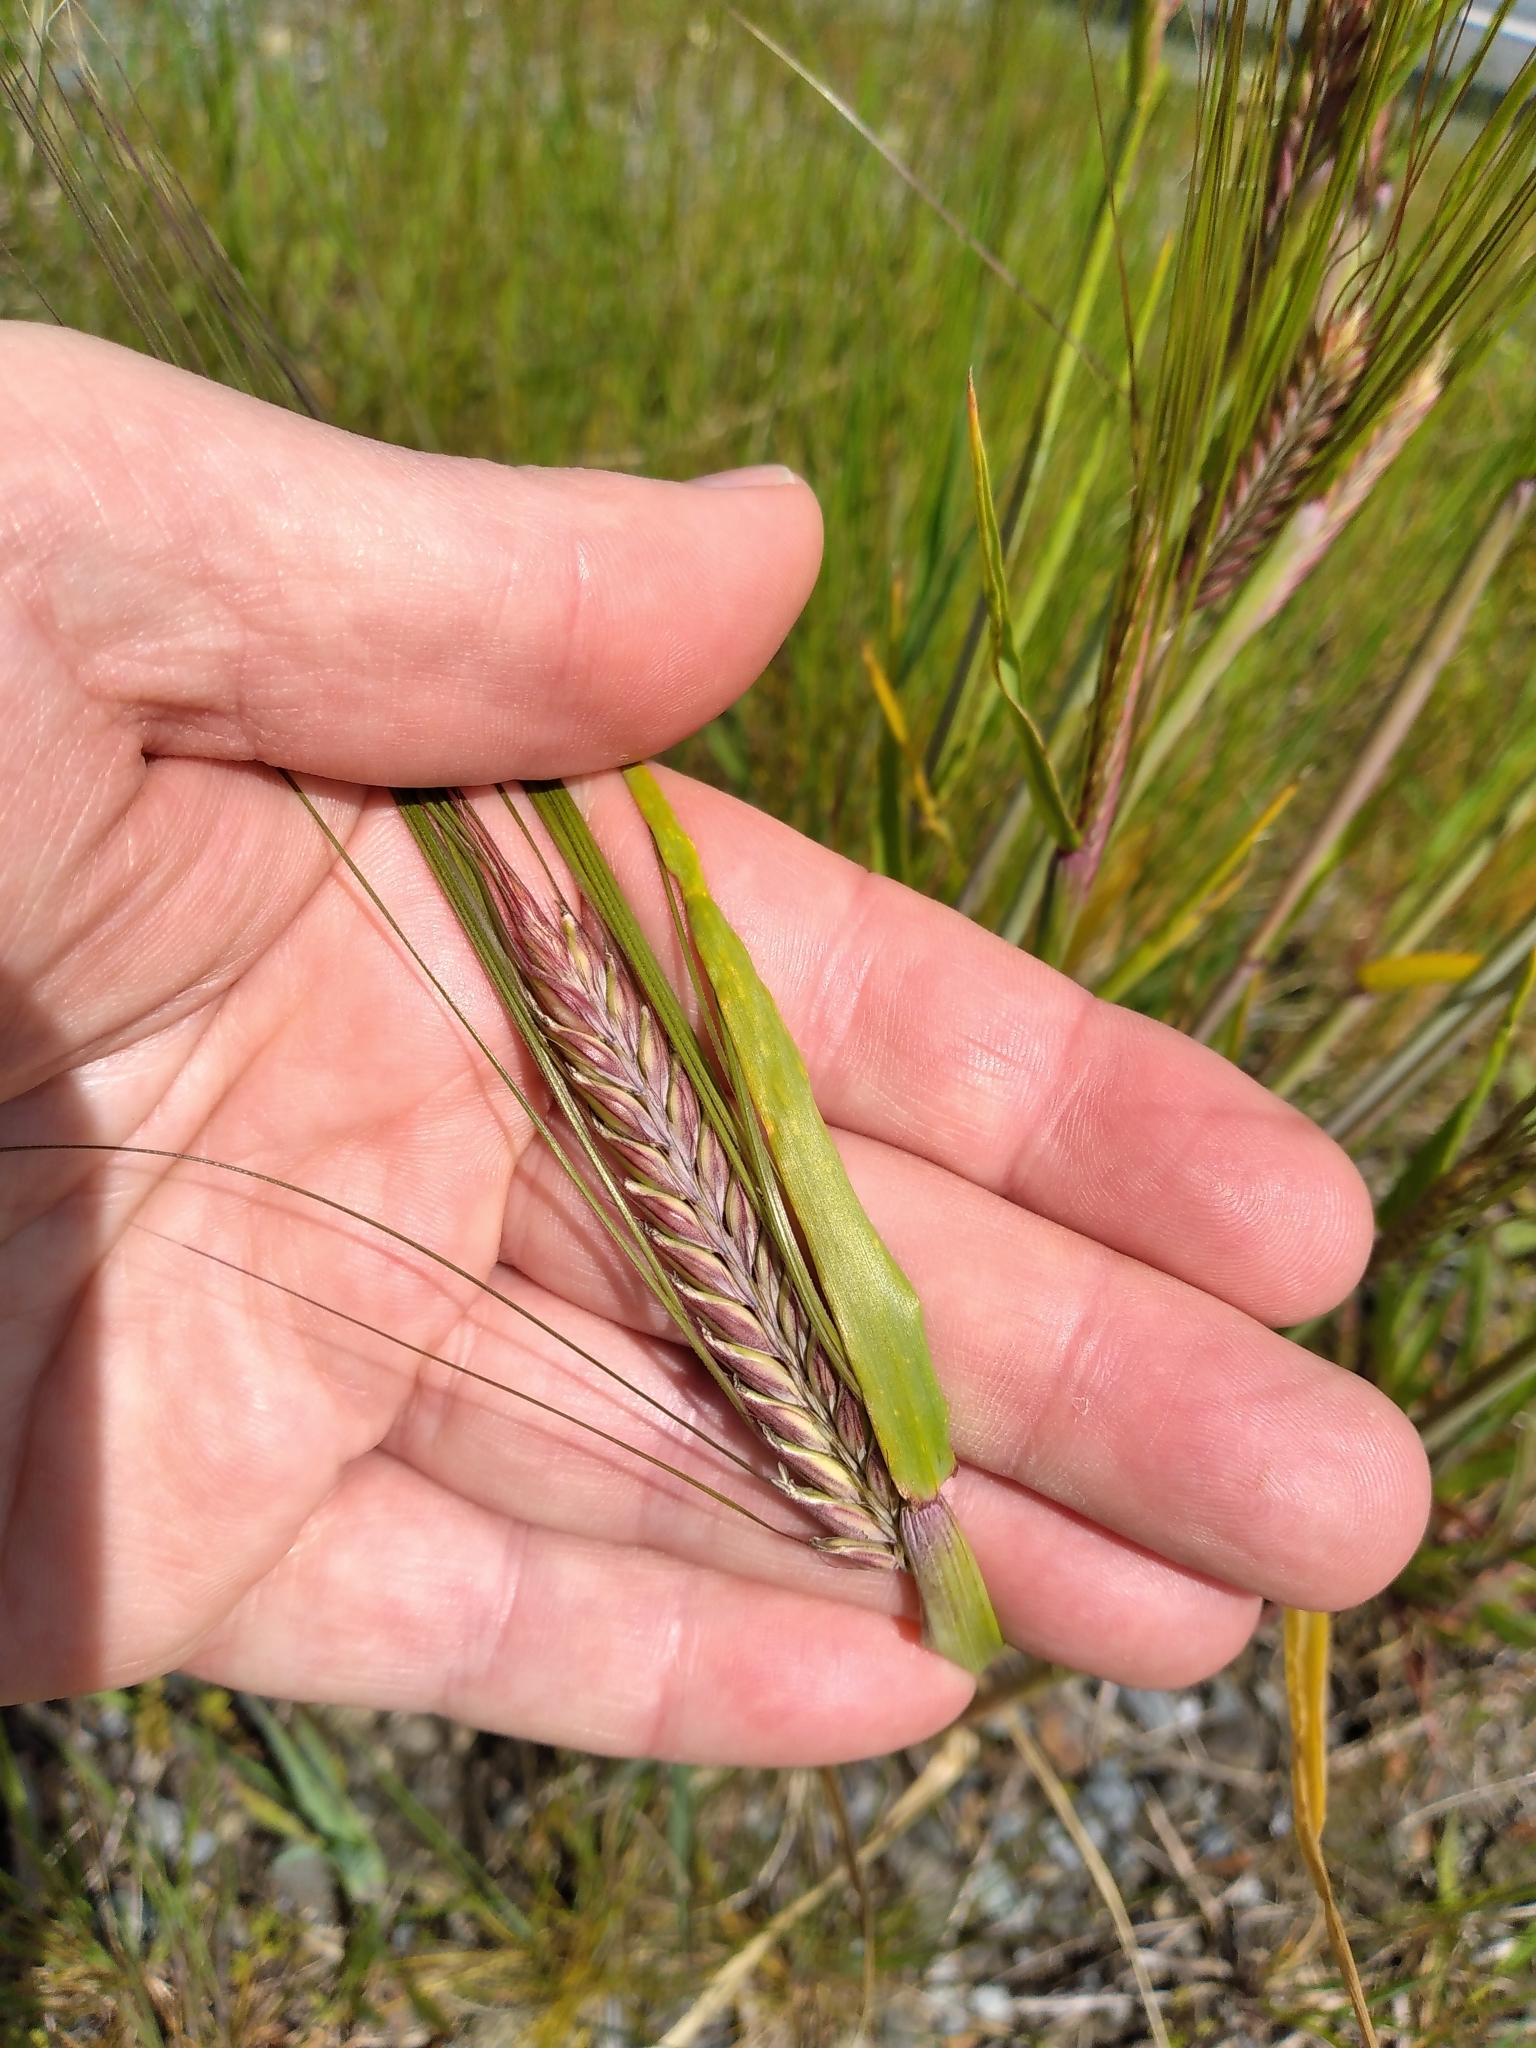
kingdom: Plantae
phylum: Tracheophyta
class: Liliopsida
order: Poales
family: Poaceae
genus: Hordeum
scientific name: Hordeum distichon
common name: Two-rowed barley
